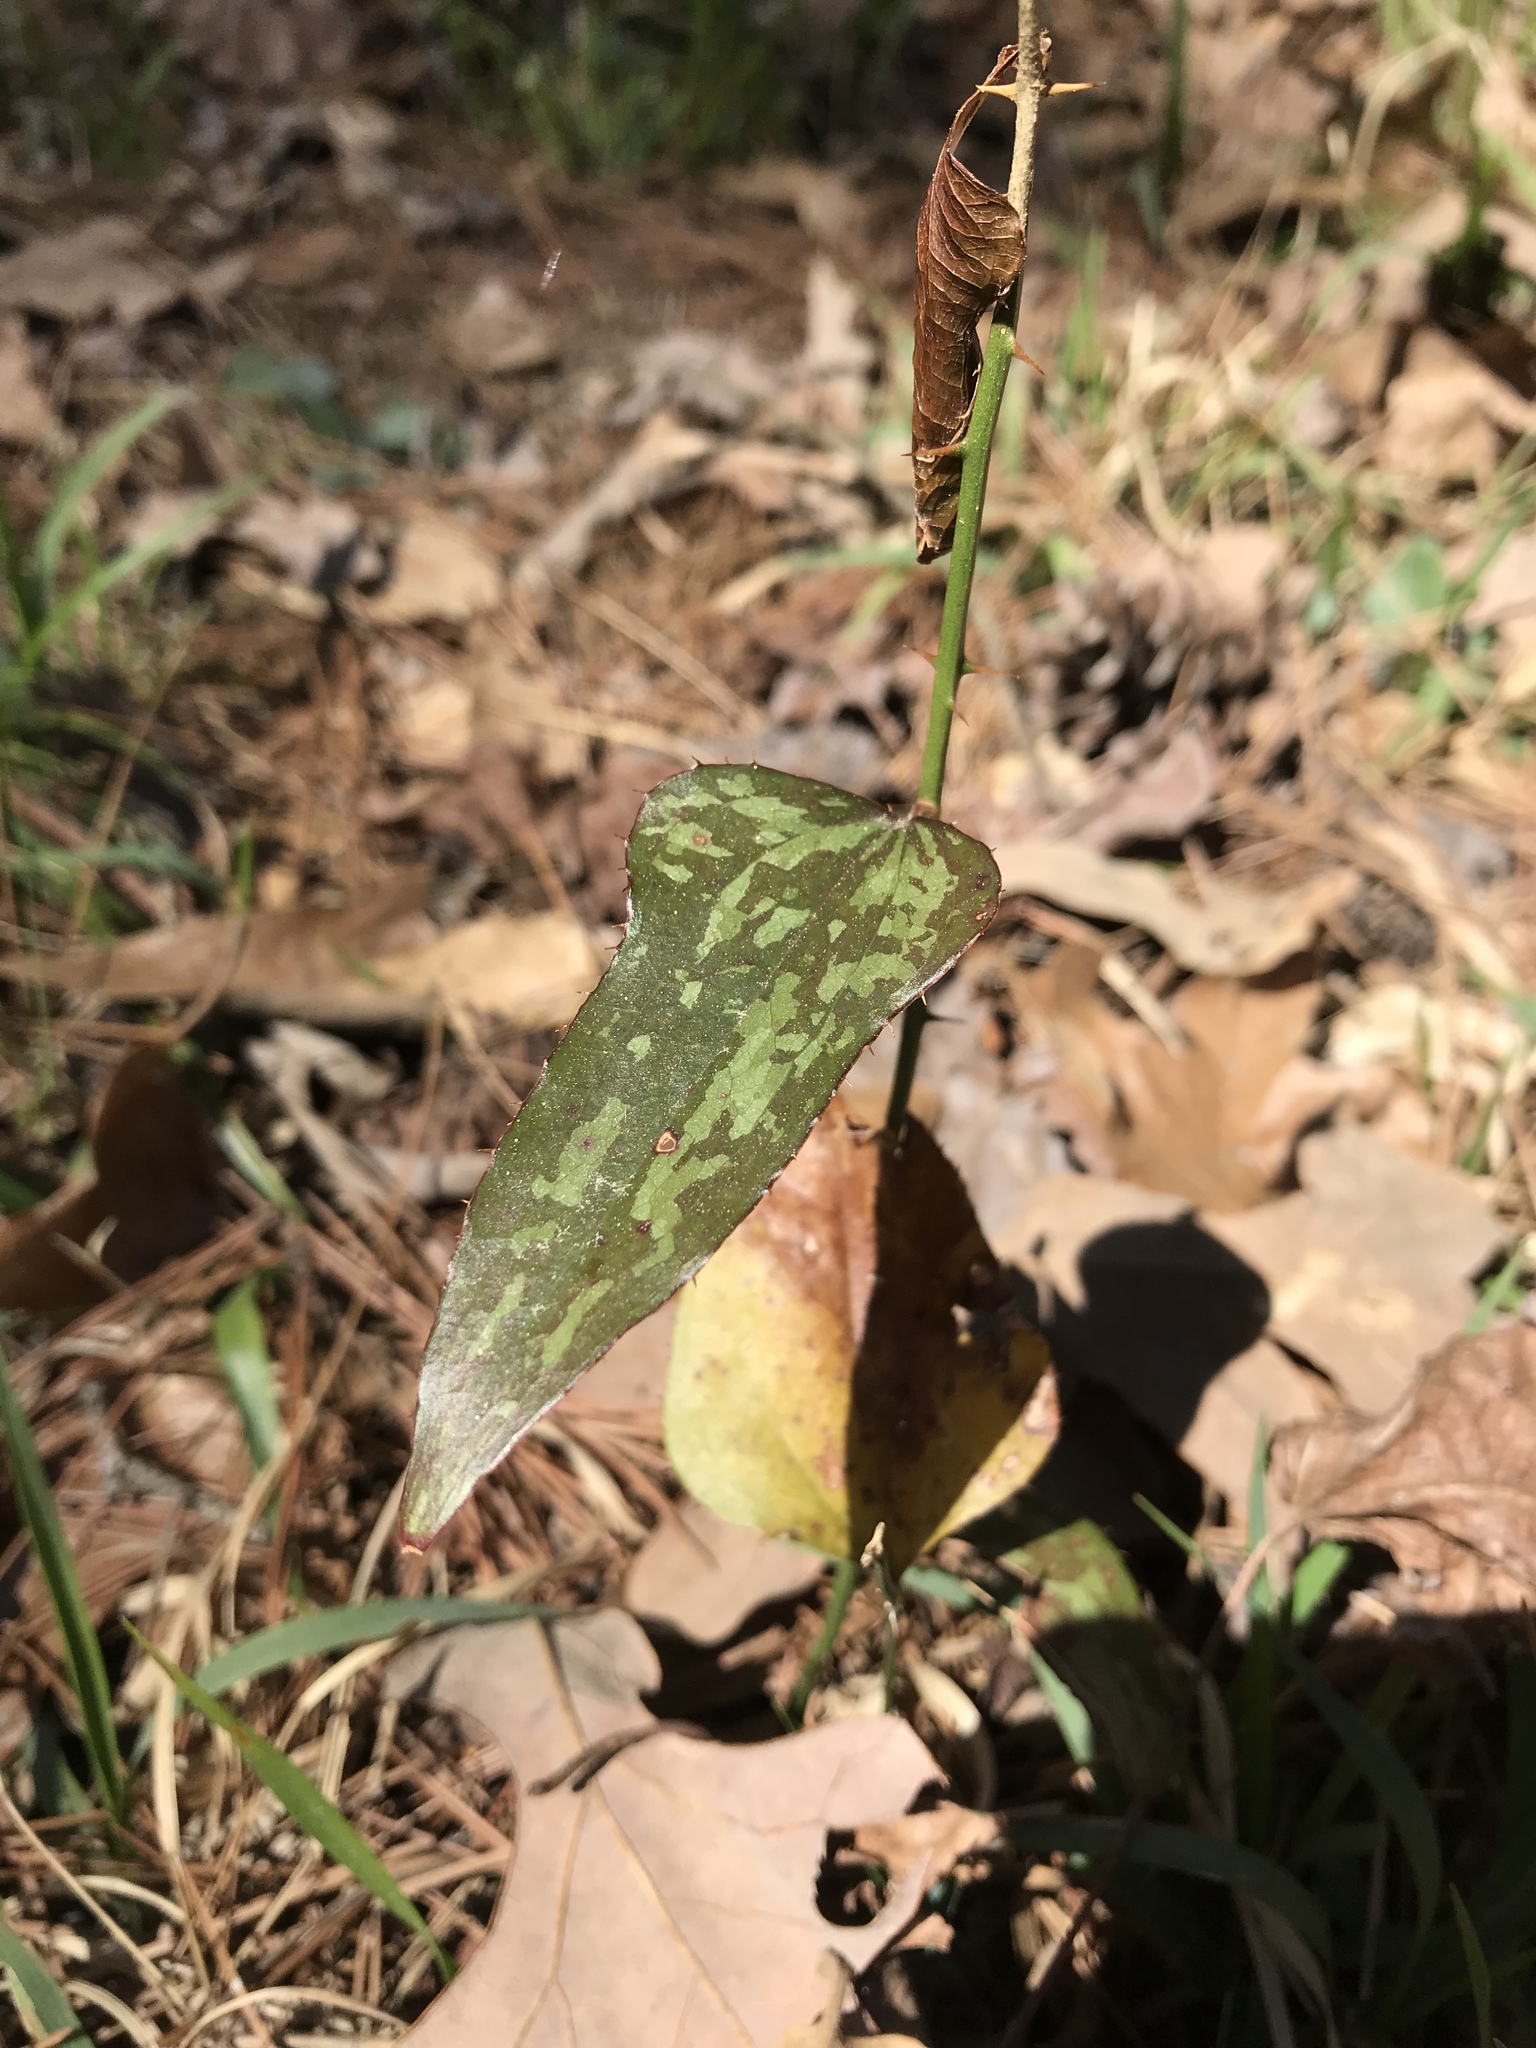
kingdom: Plantae
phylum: Tracheophyta
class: Liliopsida
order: Liliales
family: Smilacaceae
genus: Smilax
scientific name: Smilax bona-nox
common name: Catbrier
